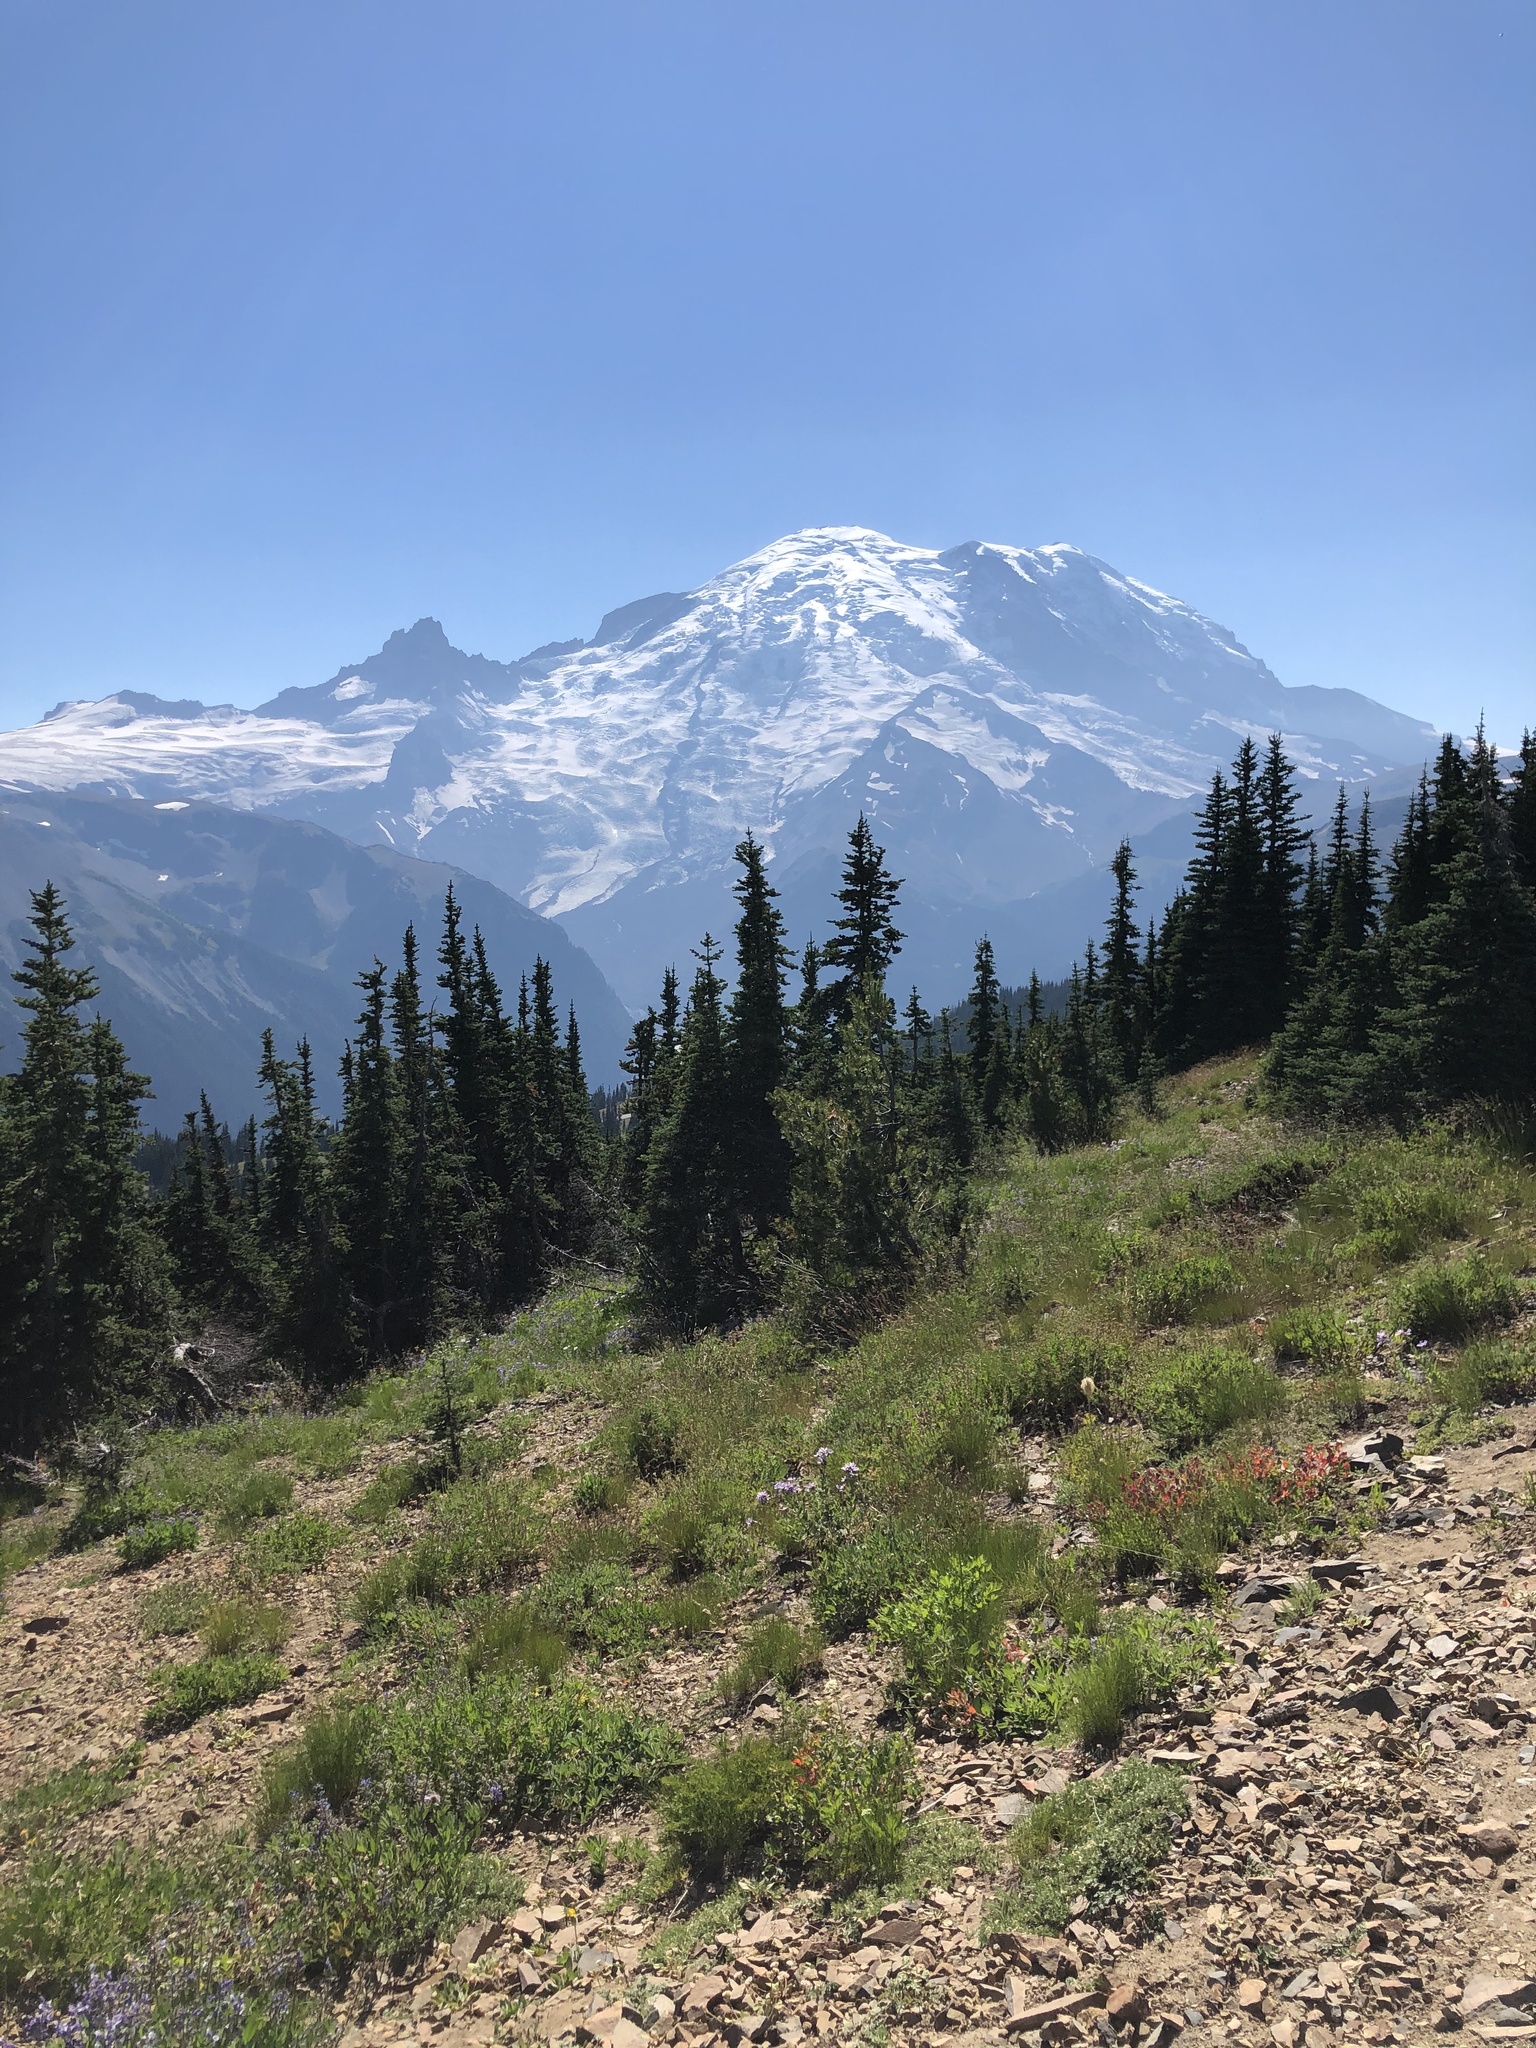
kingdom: Plantae
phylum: Tracheophyta
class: Pinopsida
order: Pinales
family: Pinaceae
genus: Abies
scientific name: Abies lasiocarpa
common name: Subalpine fir
